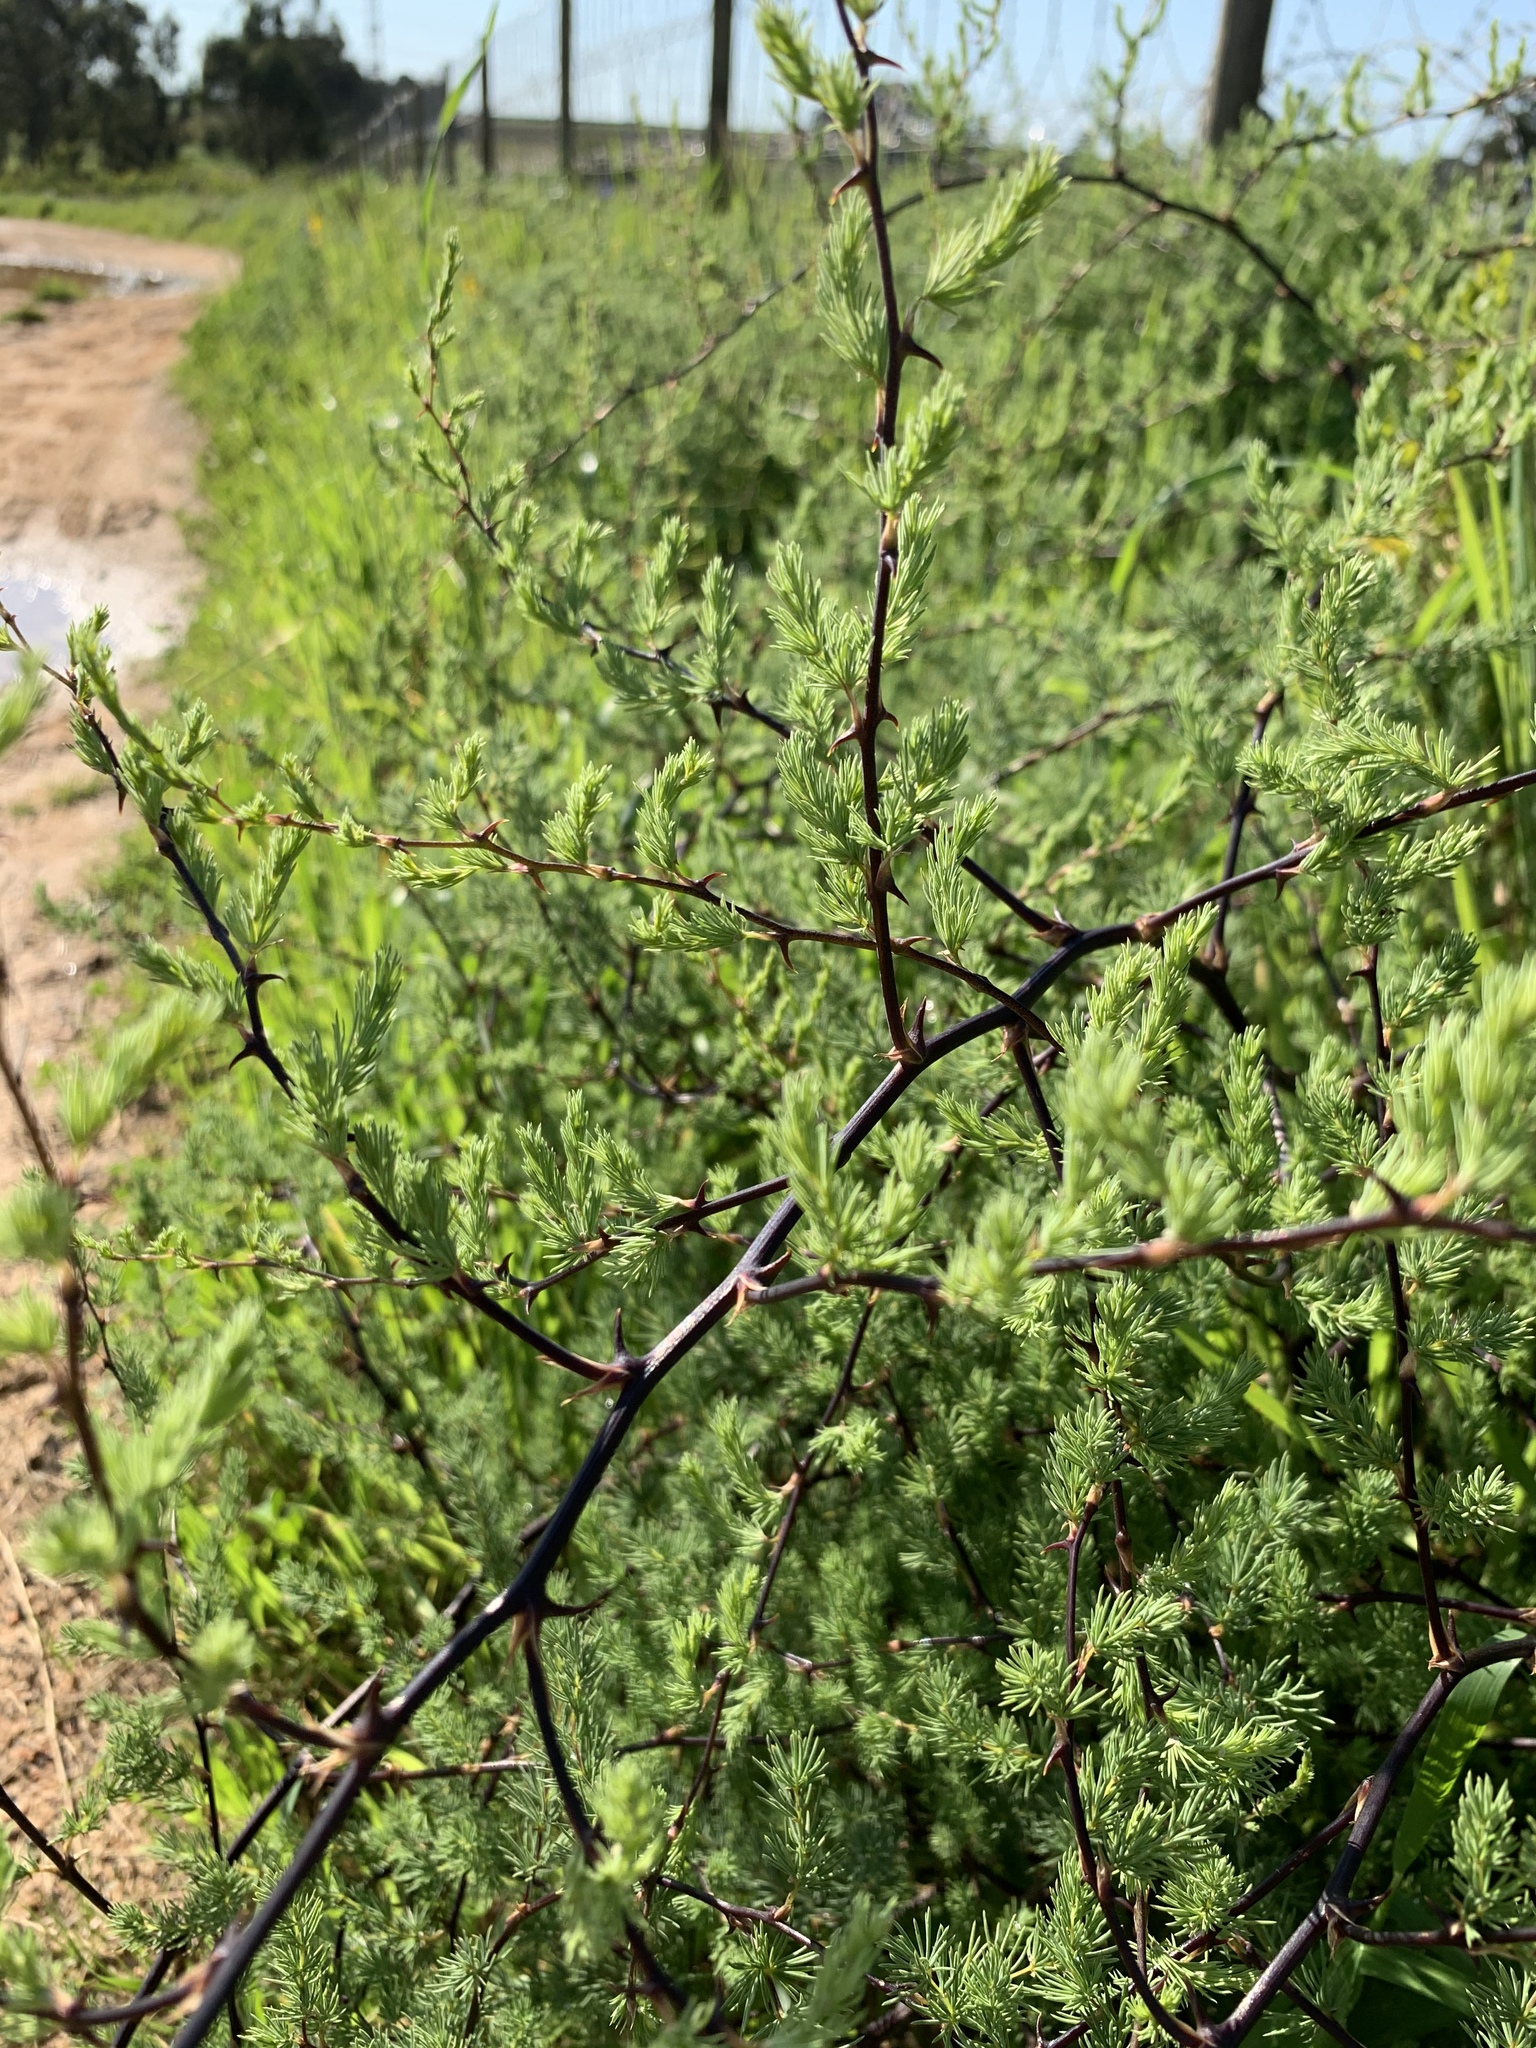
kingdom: Plantae
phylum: Tracheophyta
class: Liliopsida
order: Asparagales
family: Asparagaceae
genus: Asparagus
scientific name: Asparagus rubicundus
